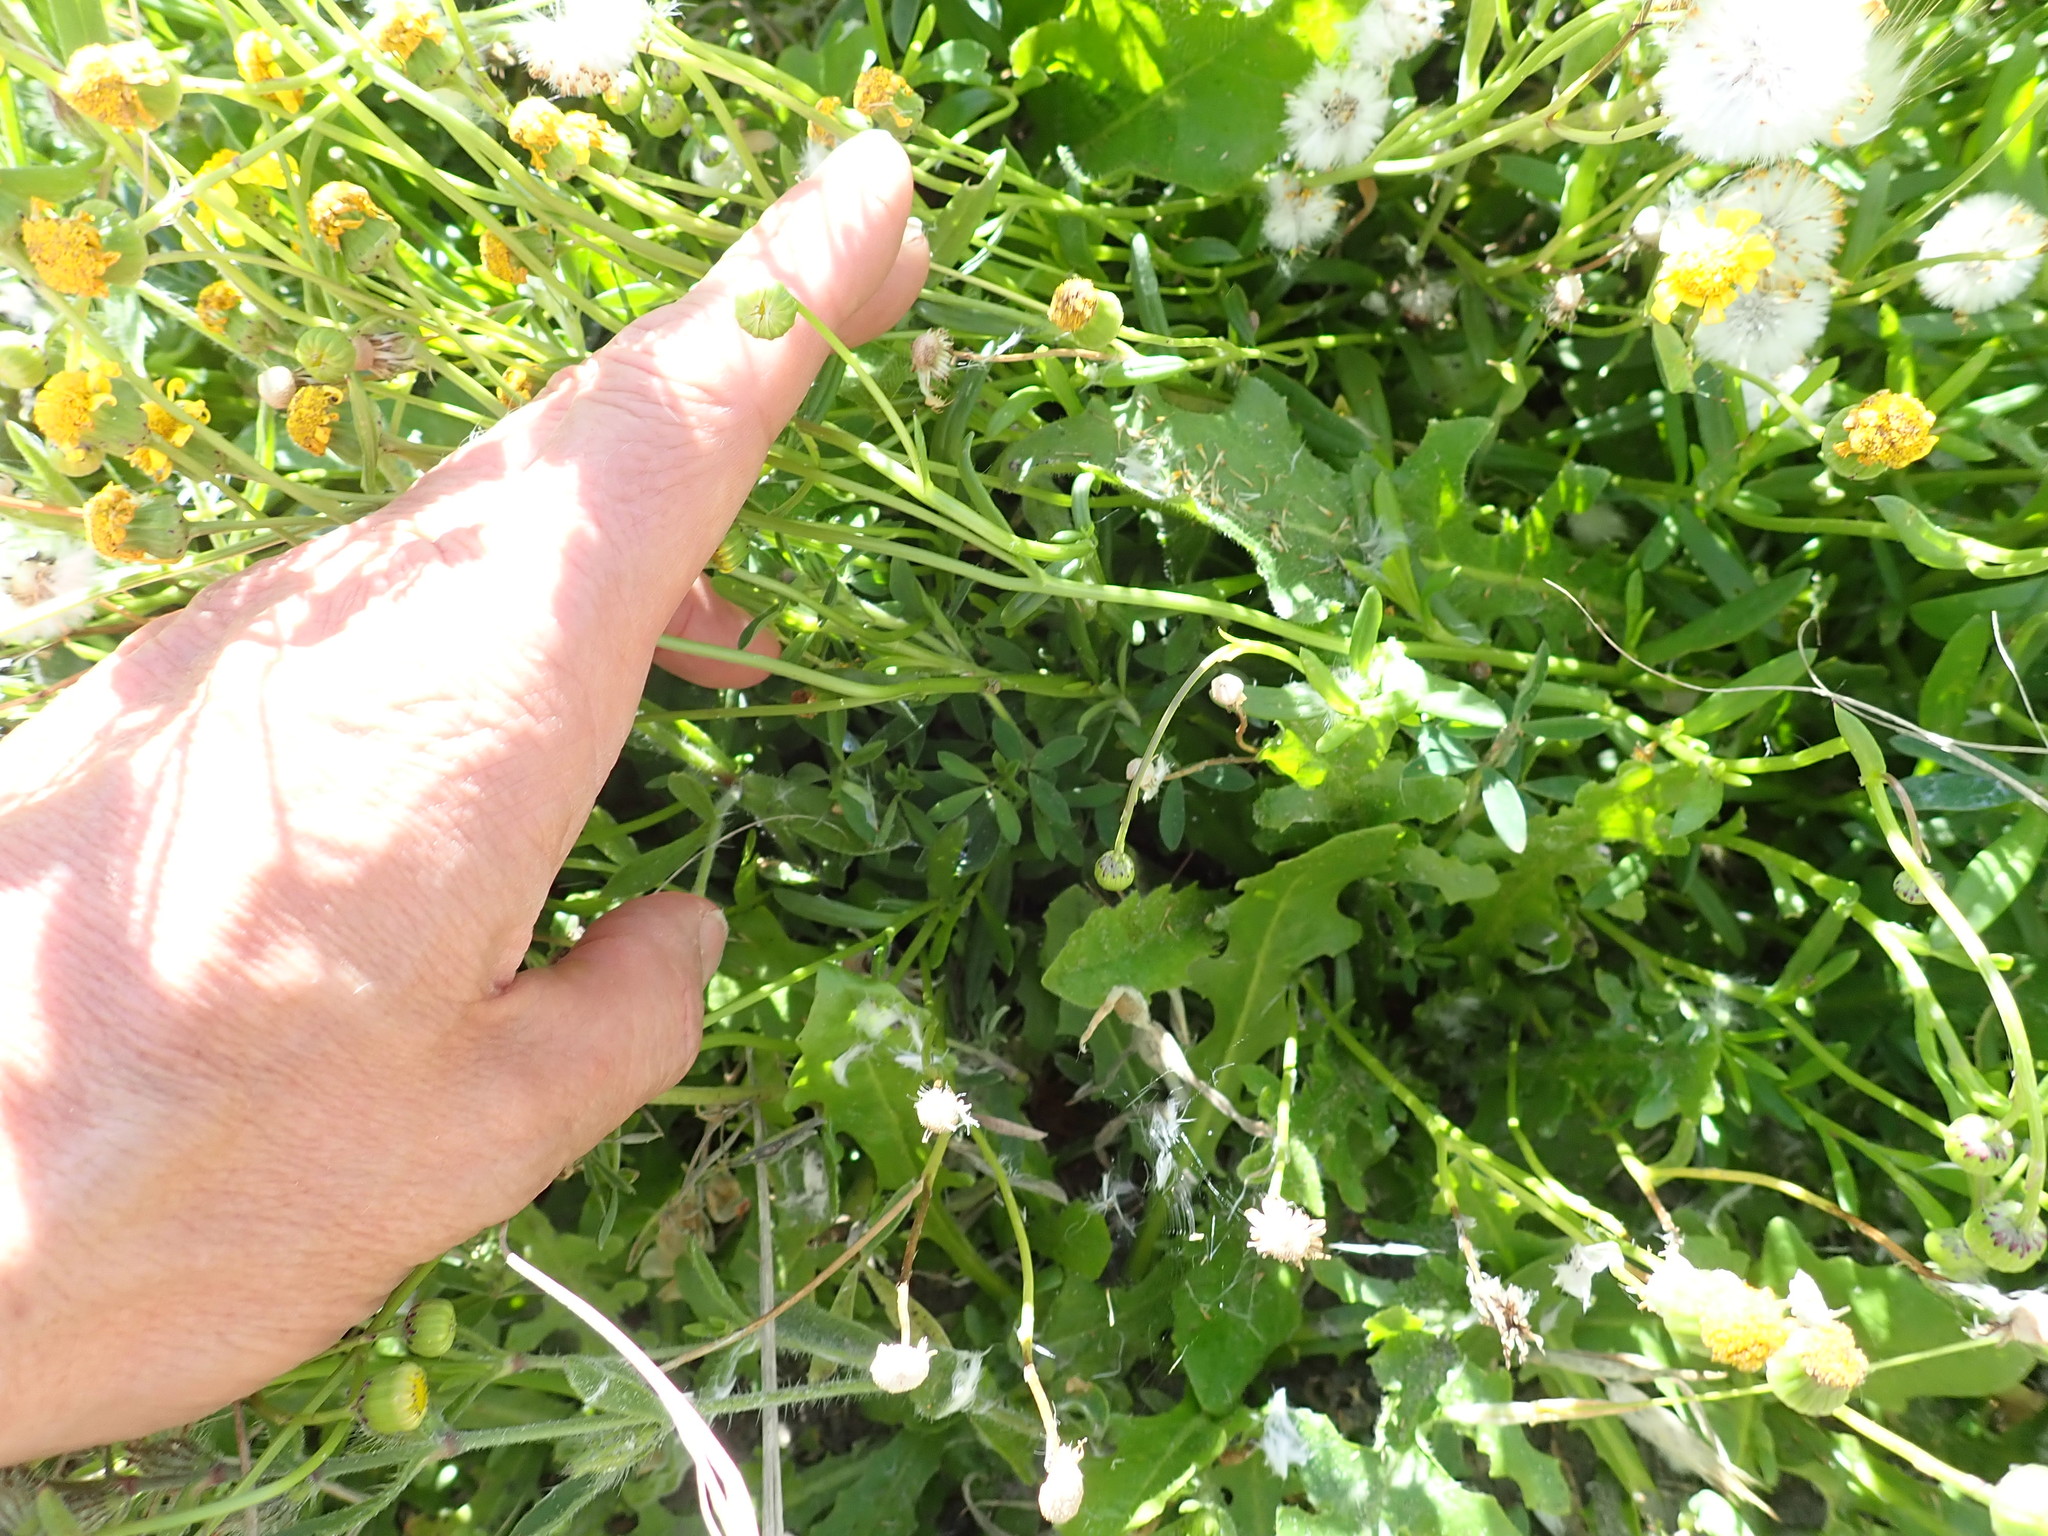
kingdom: Plantae
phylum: Tracheophyta
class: Magnoliopsida
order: Asterales
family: Asteraceae
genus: Senecio
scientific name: Senecio skirrhodon
